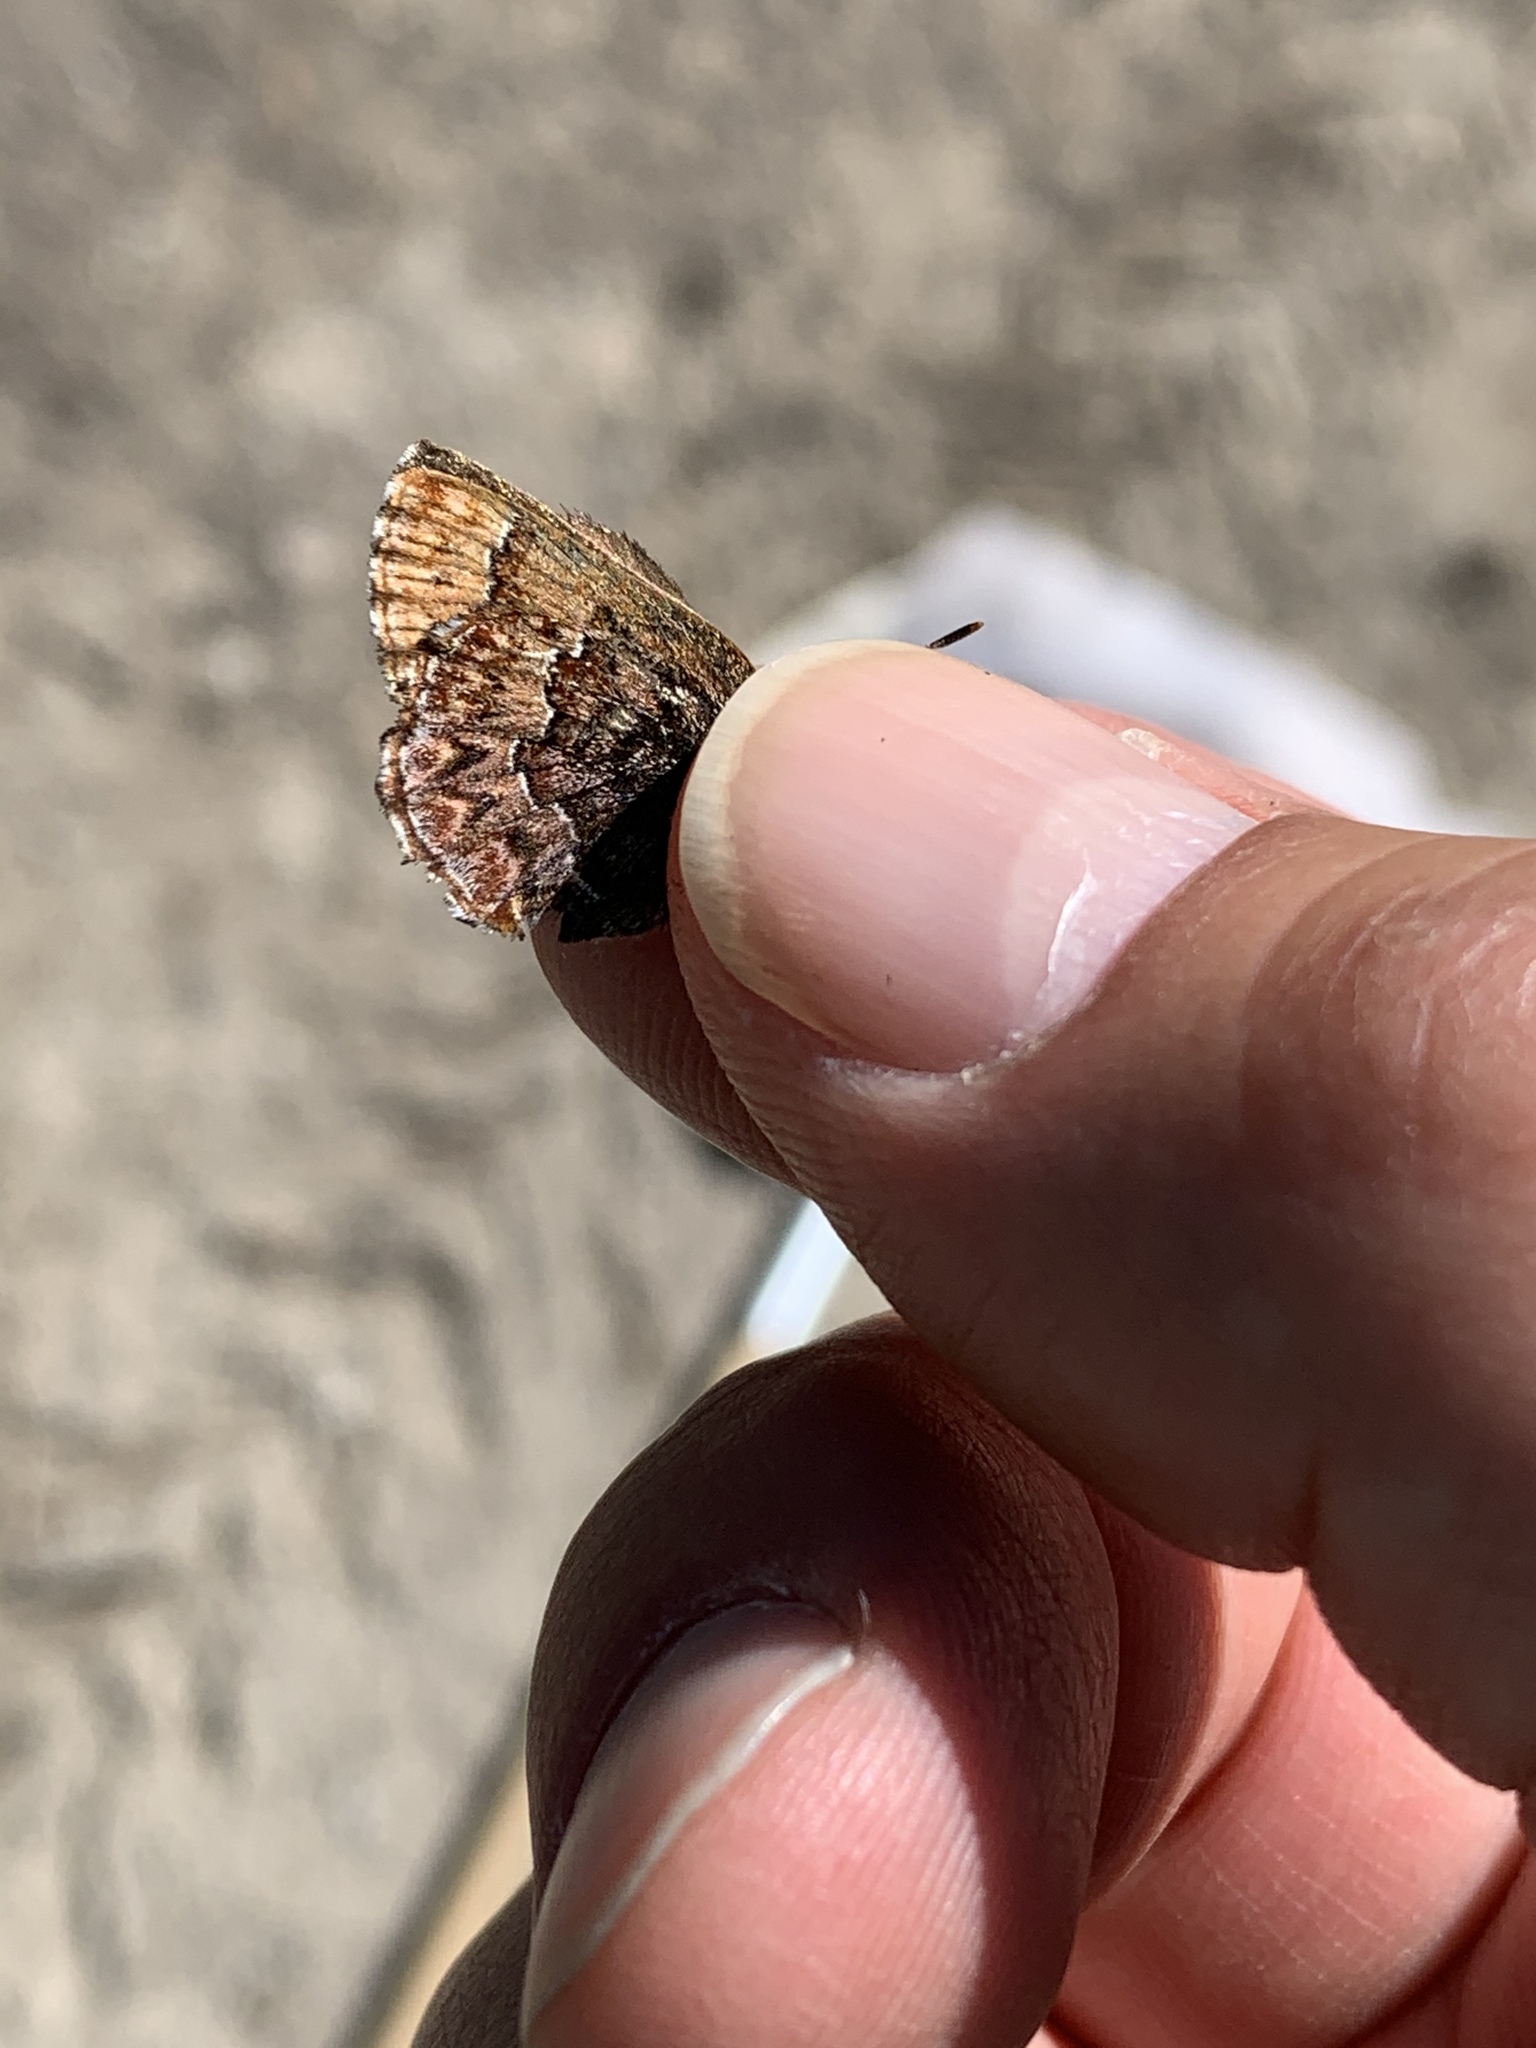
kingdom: Animalia
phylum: Arthropoda
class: Insecta
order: Lepidoptera
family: Lycaenidae
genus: Incisalia
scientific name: Incisalia eryphon
